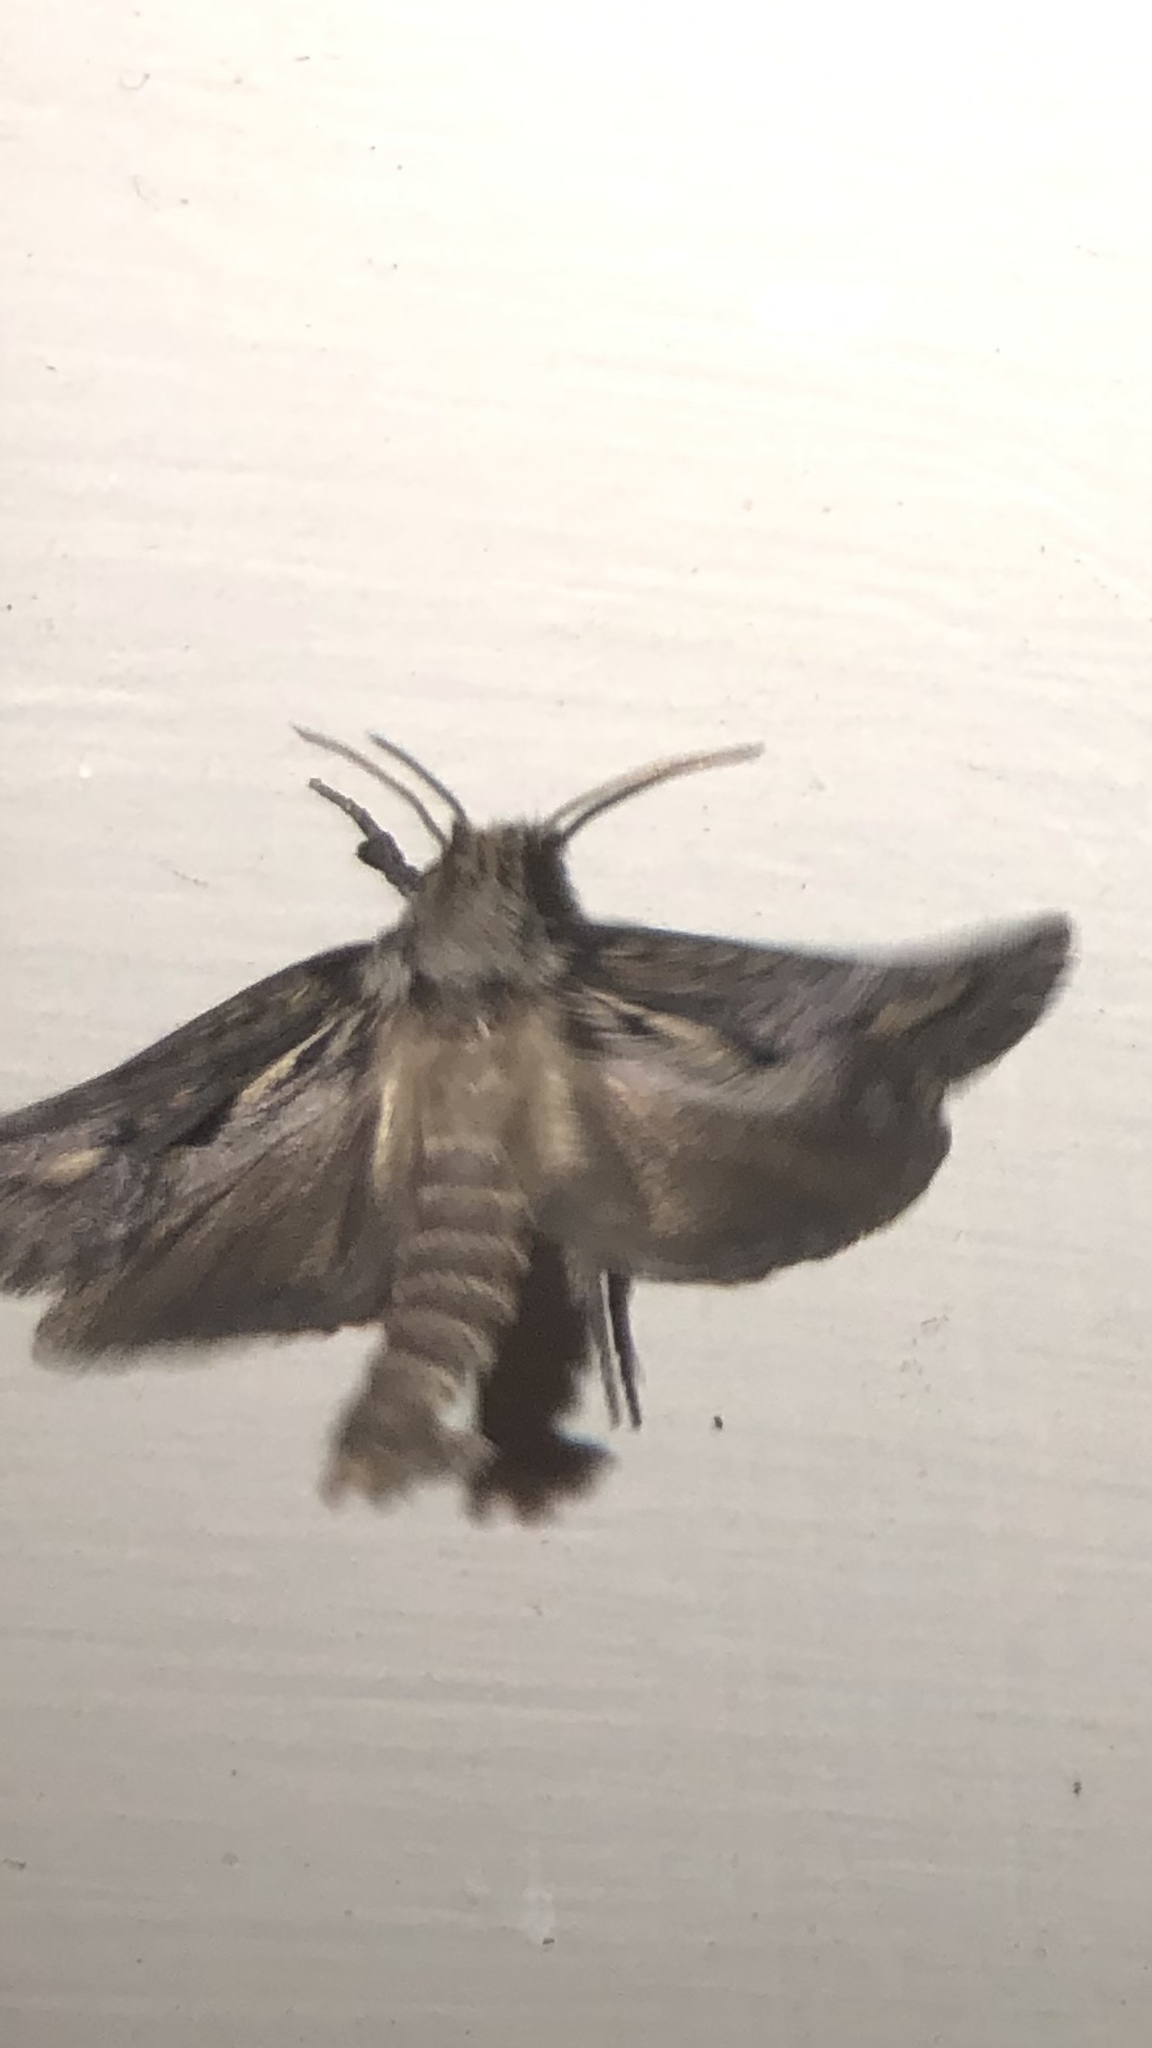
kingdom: Animalia
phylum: Arthropoda
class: Insecta
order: Lepidoptera
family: Tineidae
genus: Acrolophus
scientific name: Acrolophus popeanella
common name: Clemens' grass tubeworm moth
